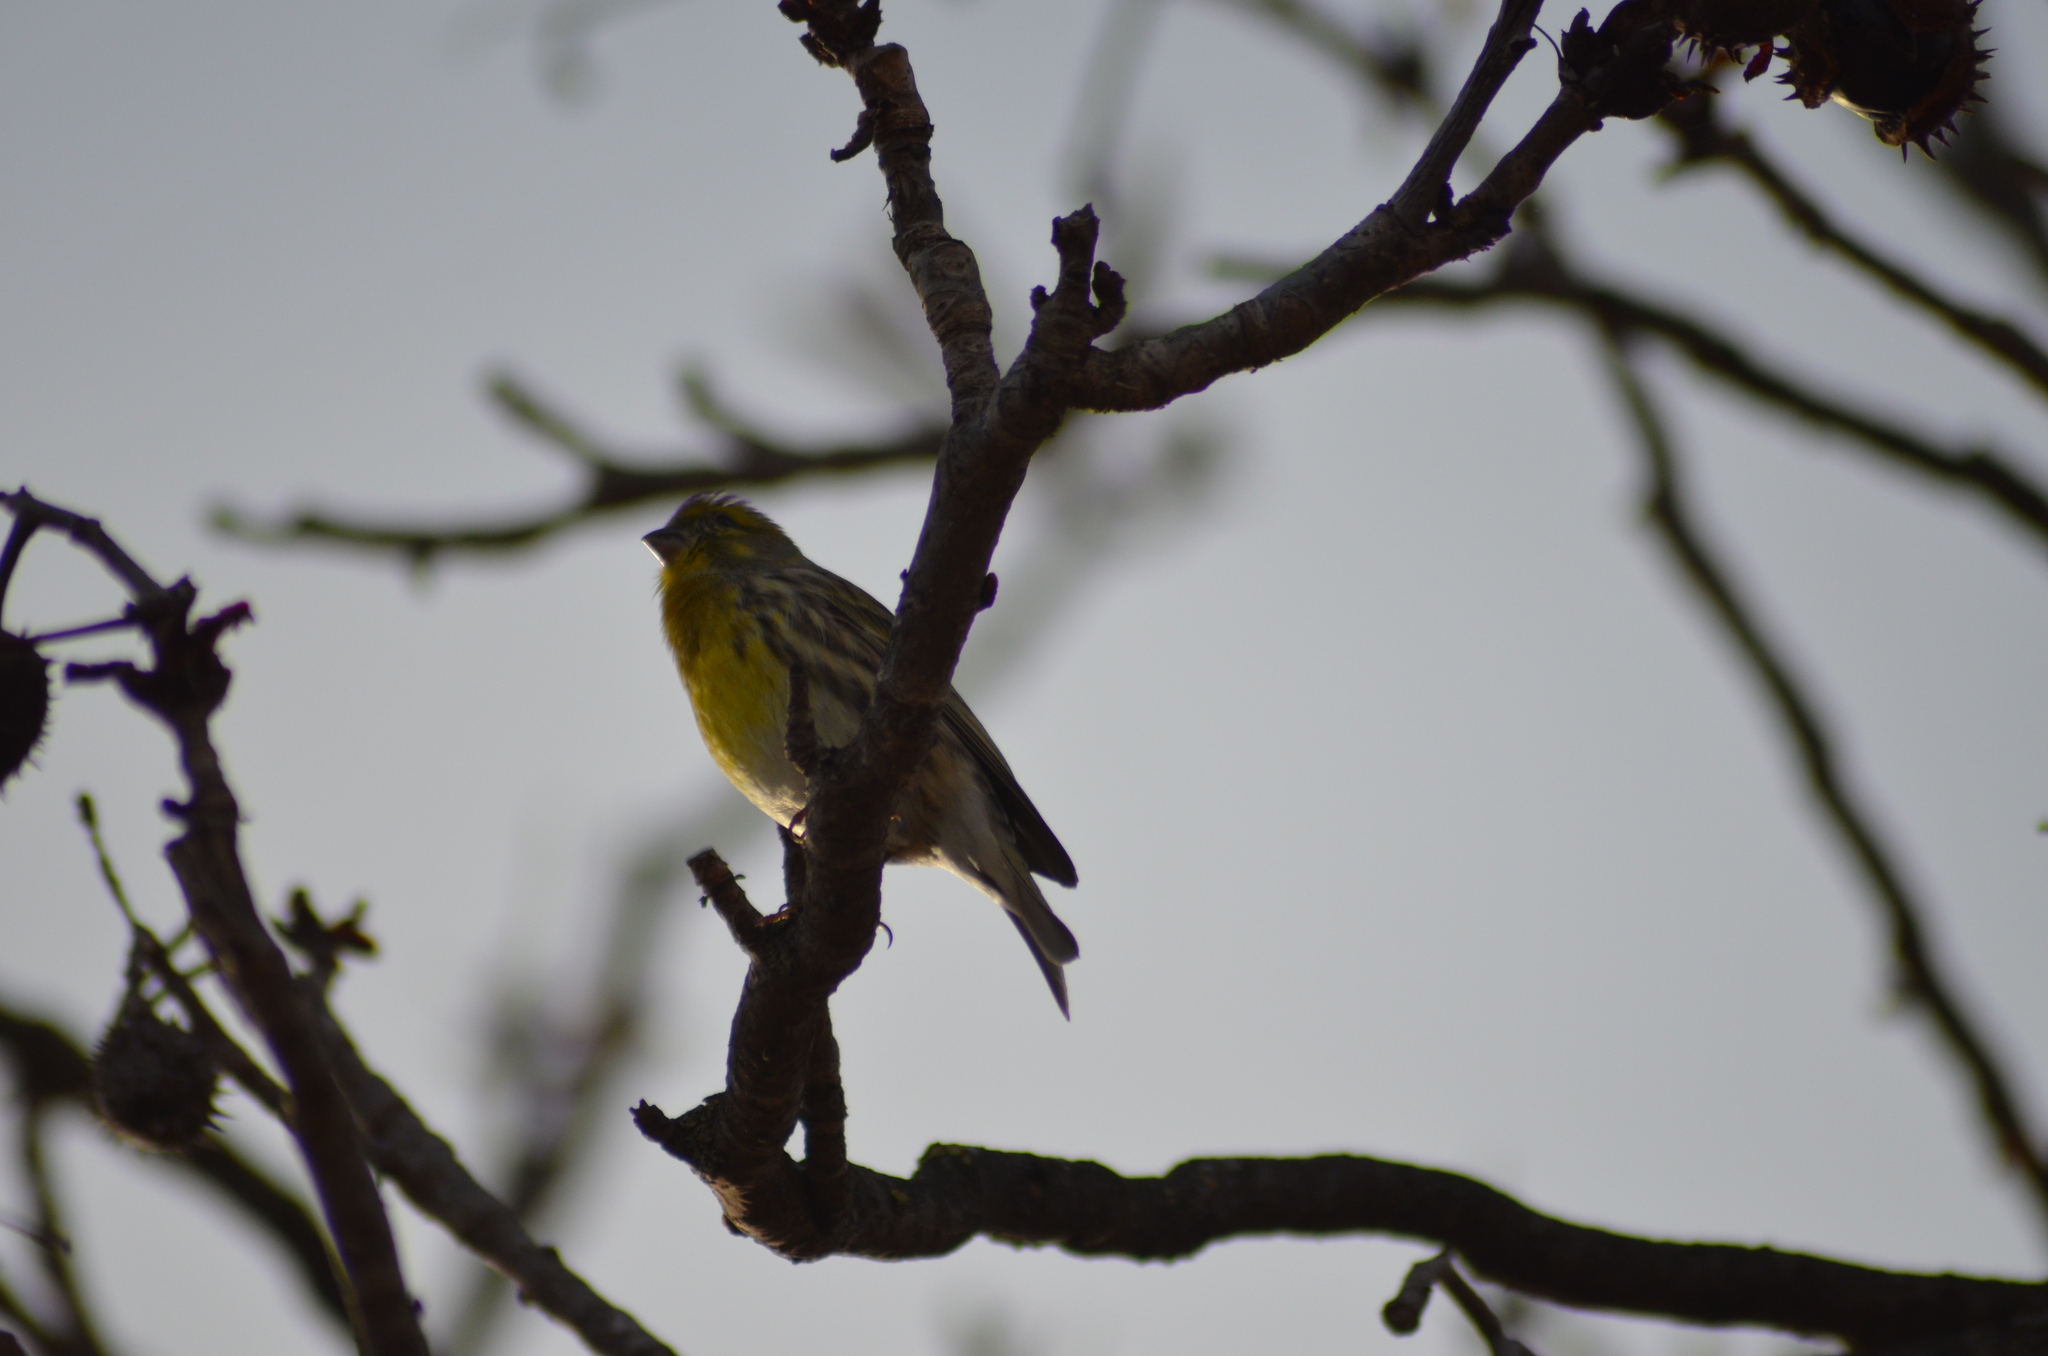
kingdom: Animalia
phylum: Chordata
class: Aves
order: Passeriformes
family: Fringillidae
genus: Serinus
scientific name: Serinus serinus
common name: European serin
